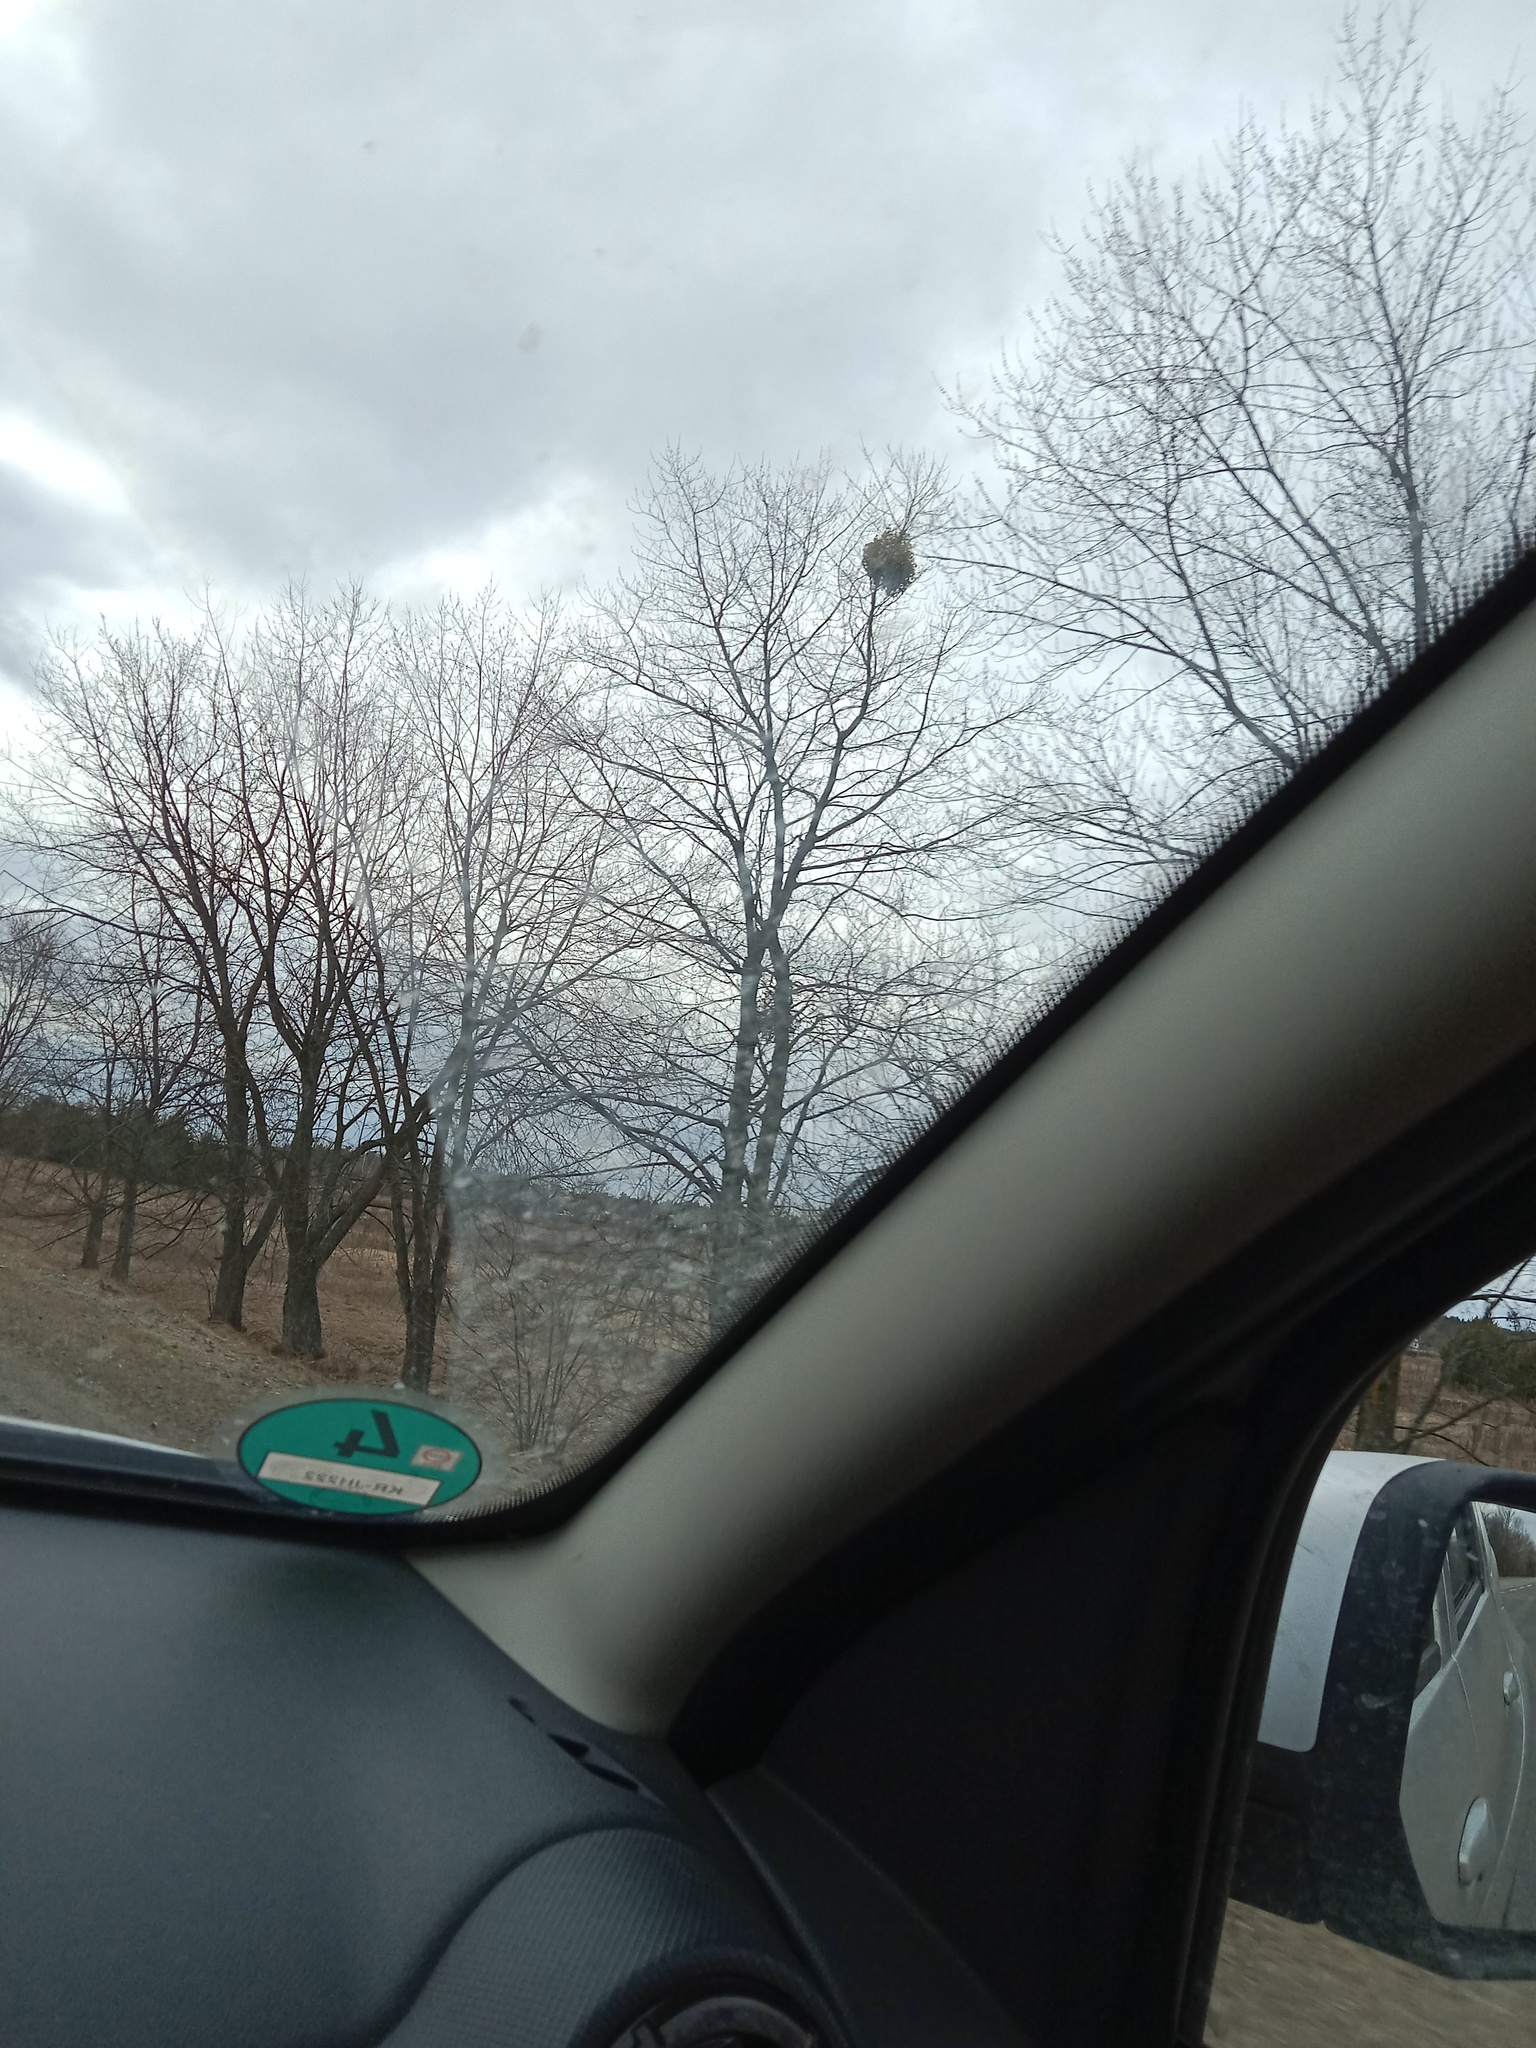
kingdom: Plantae
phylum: Tracheophyta
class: Magnoliopsida
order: Santalales
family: Viscaceae
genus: Viscum
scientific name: Viscum album
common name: Mistletoe
